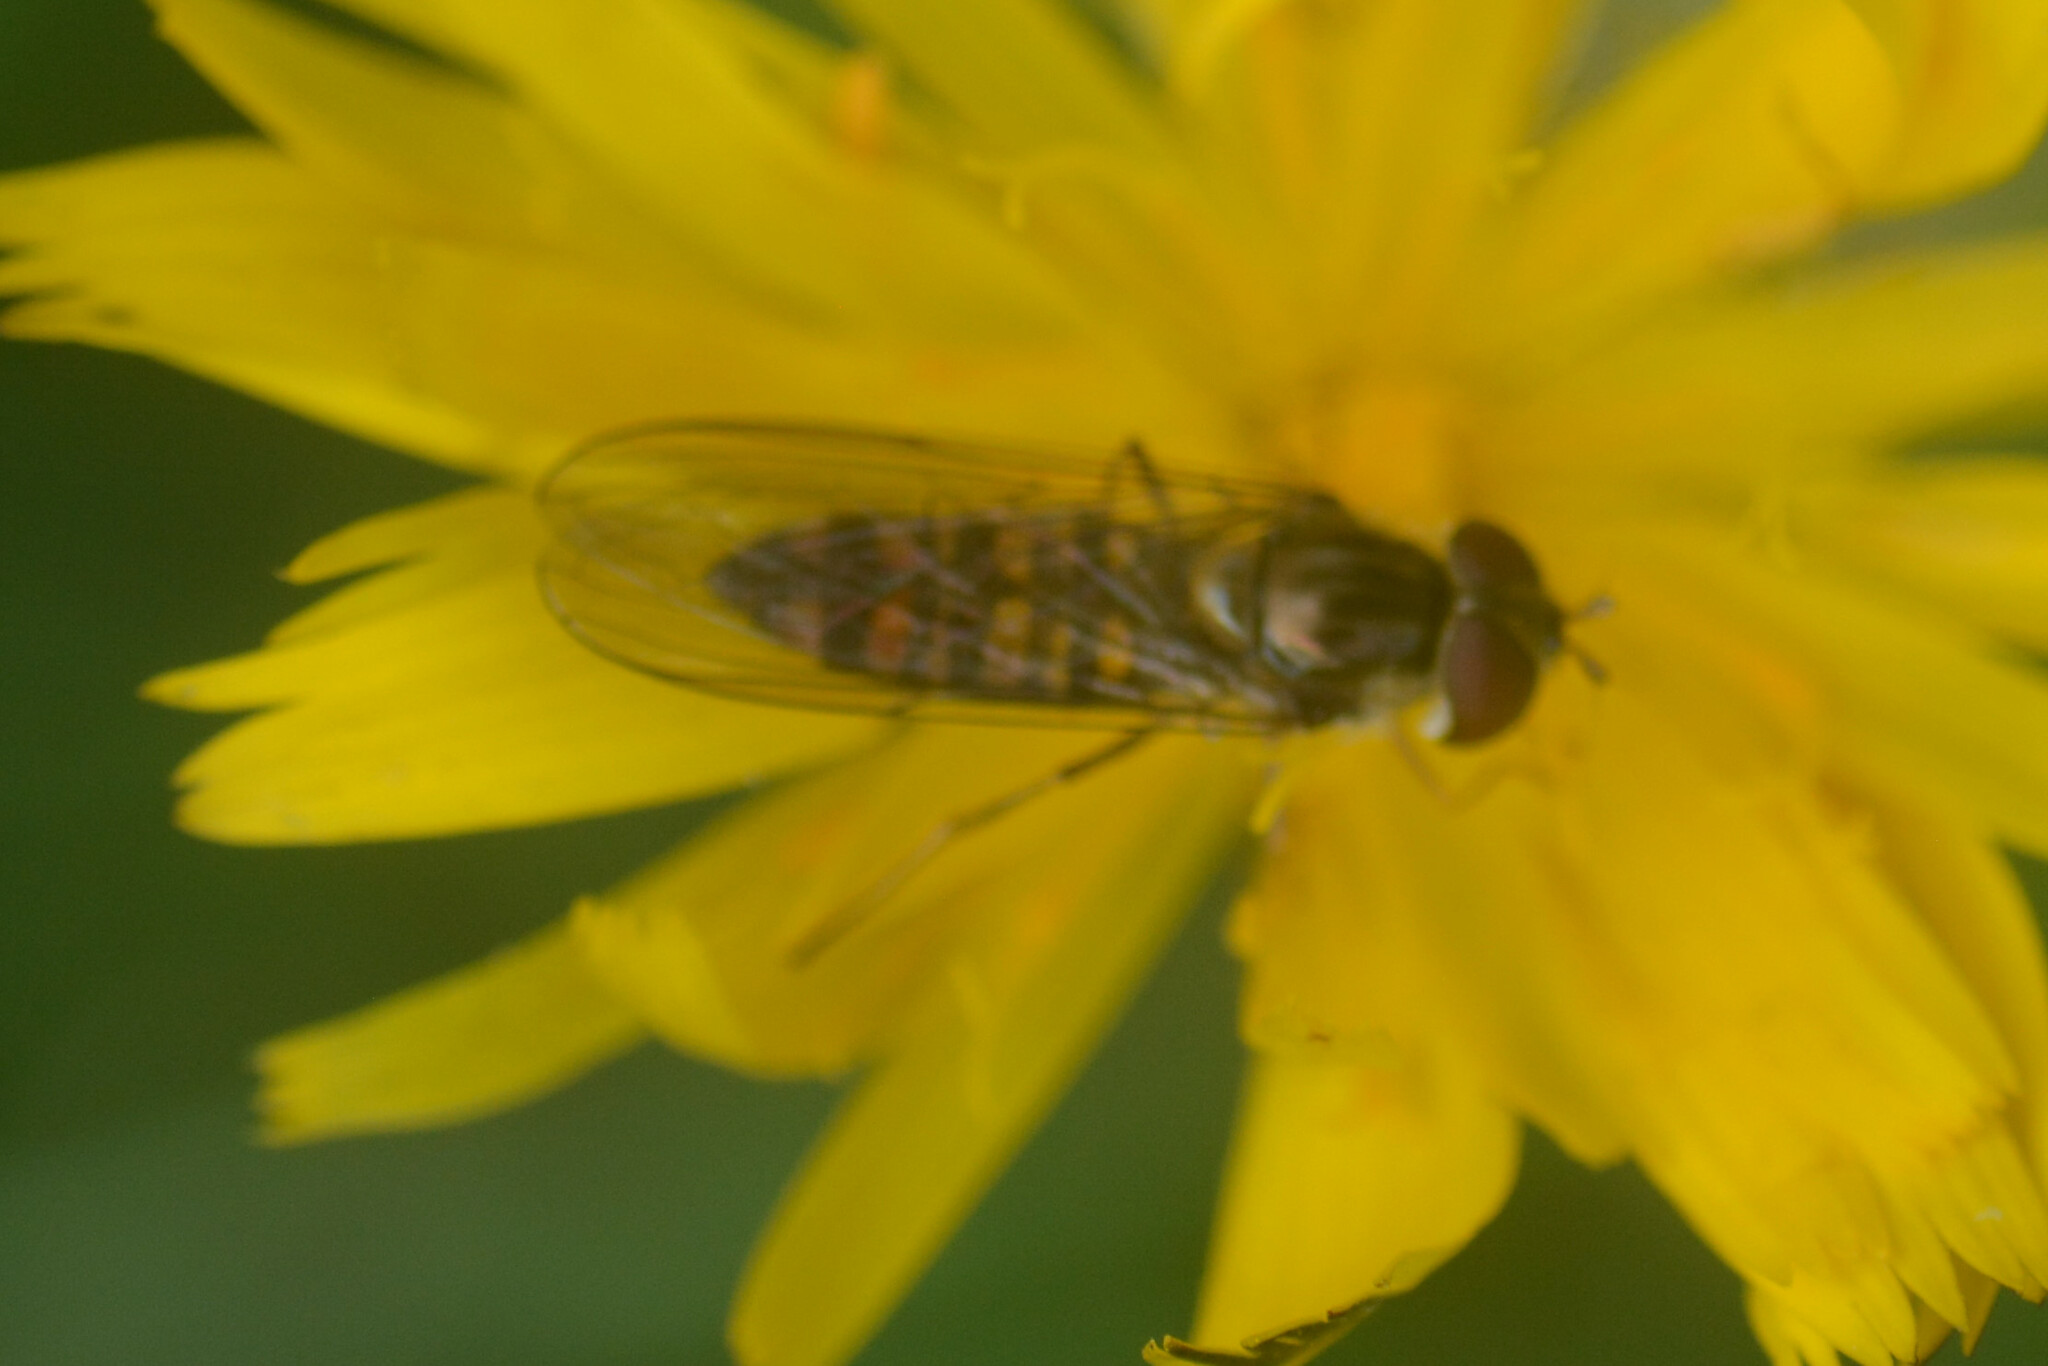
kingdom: Animalia
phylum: Arthropoda
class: Insecta
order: Diptera
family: Syrphidae
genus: Episyrphus
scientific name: Episyrphus balteatus
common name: Marmalade hoverfly
